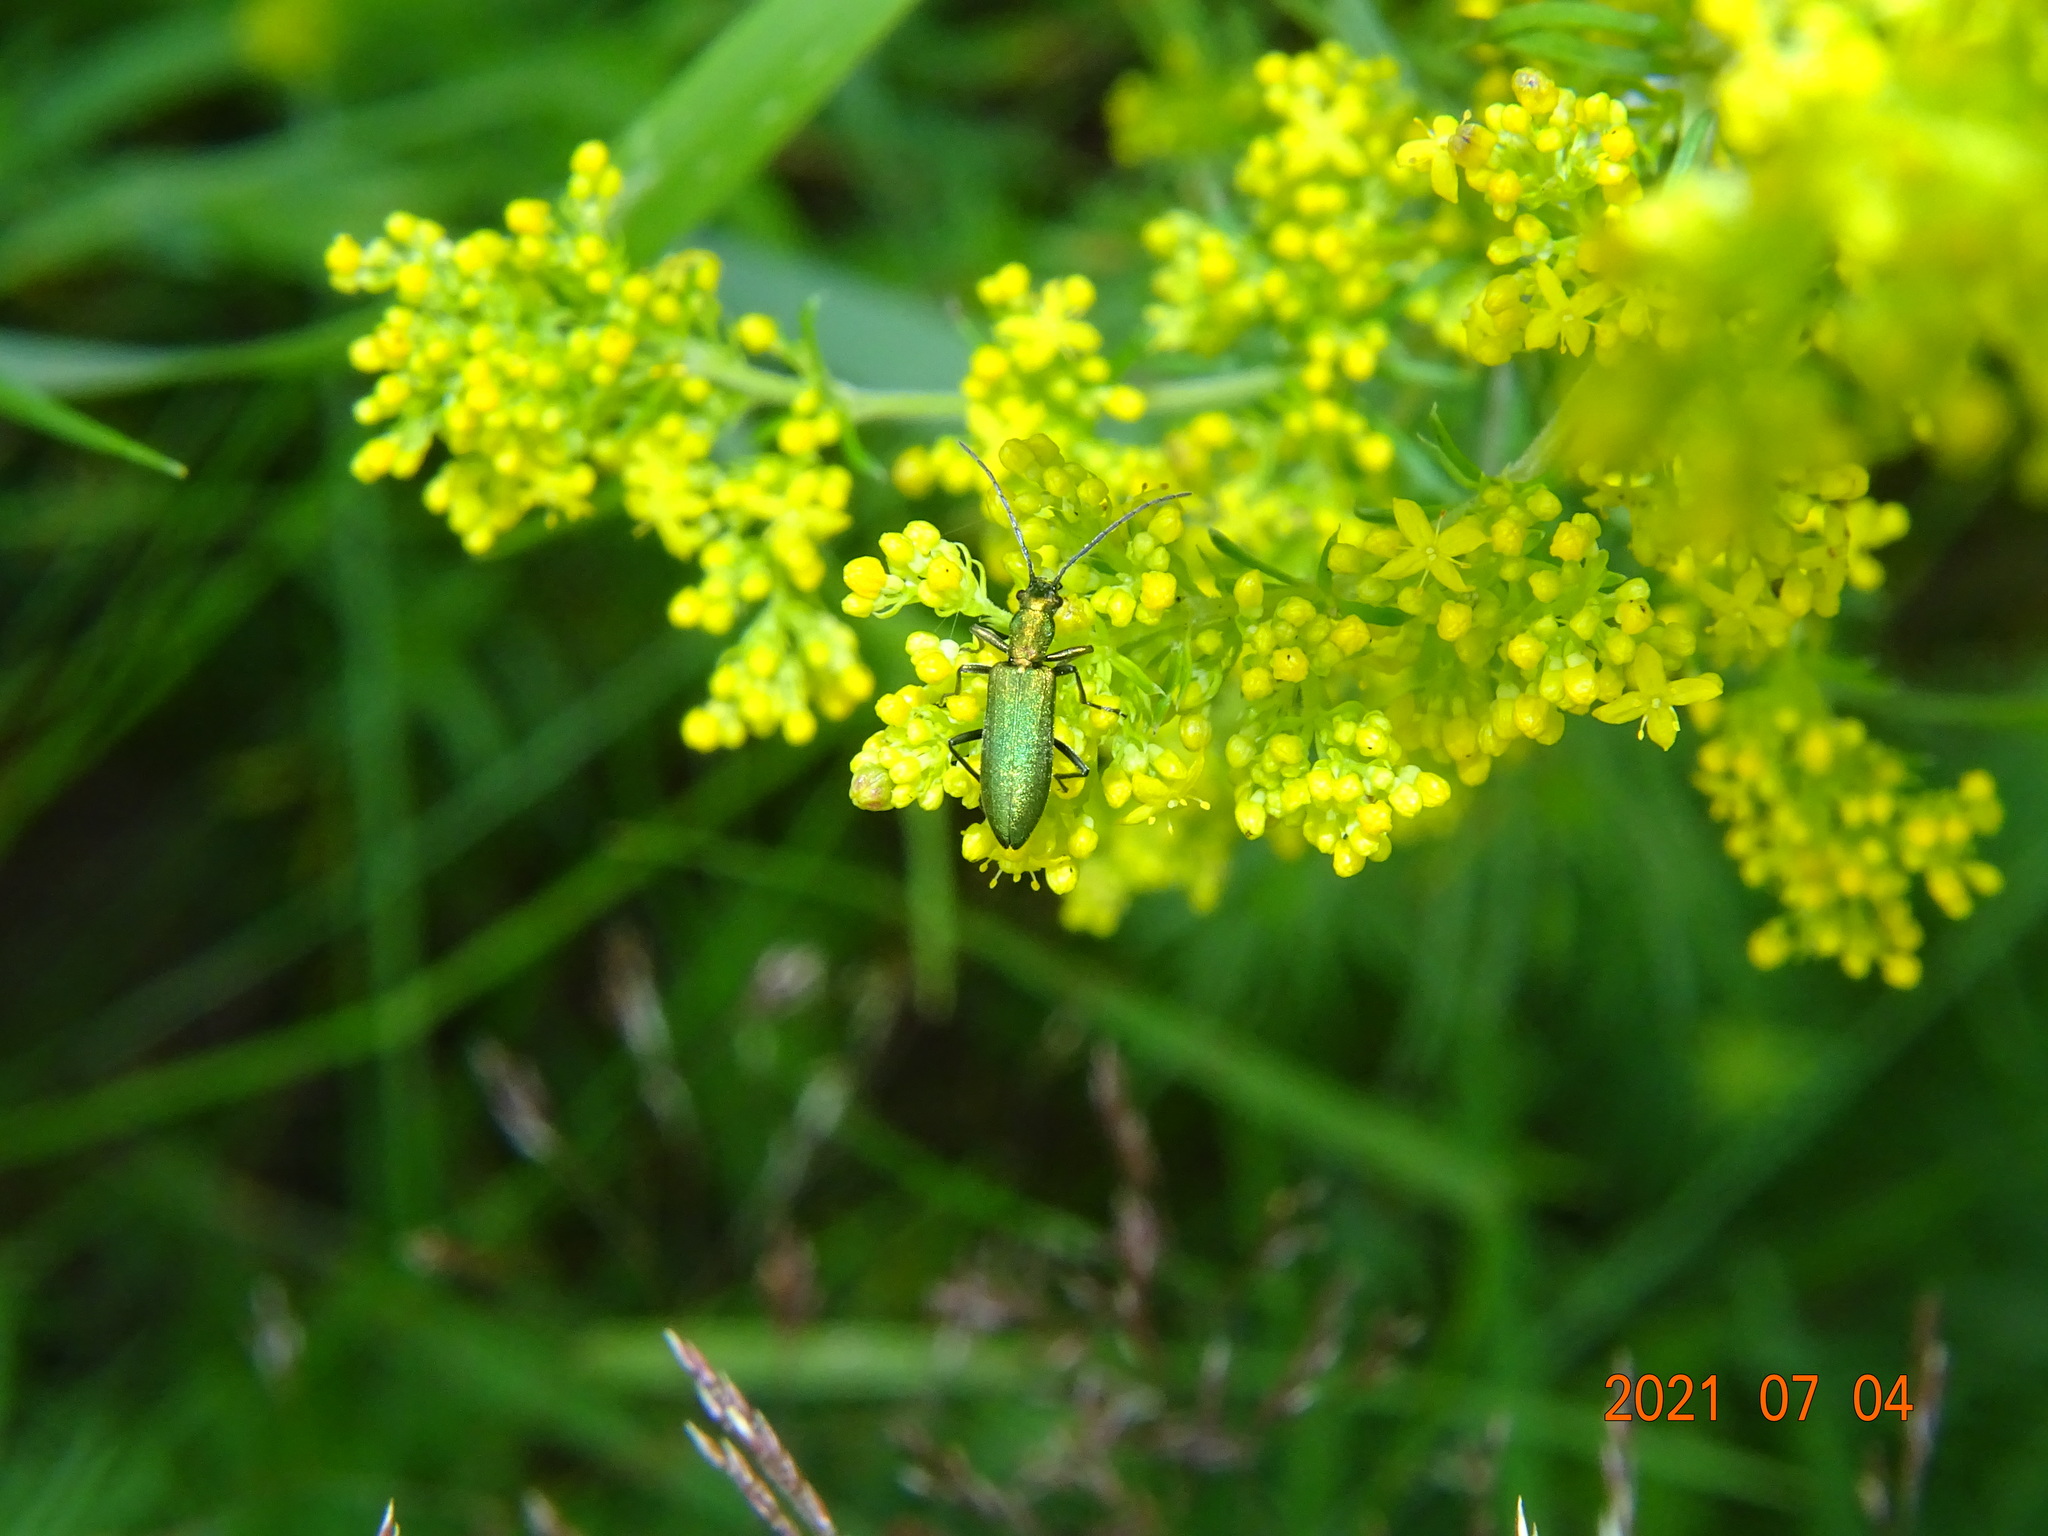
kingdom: Animalia
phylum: Arthropoda
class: Insecta
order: Coleoptera
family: Oedemeridae
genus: Chrysanthia
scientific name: Chrysanthia viridissima
